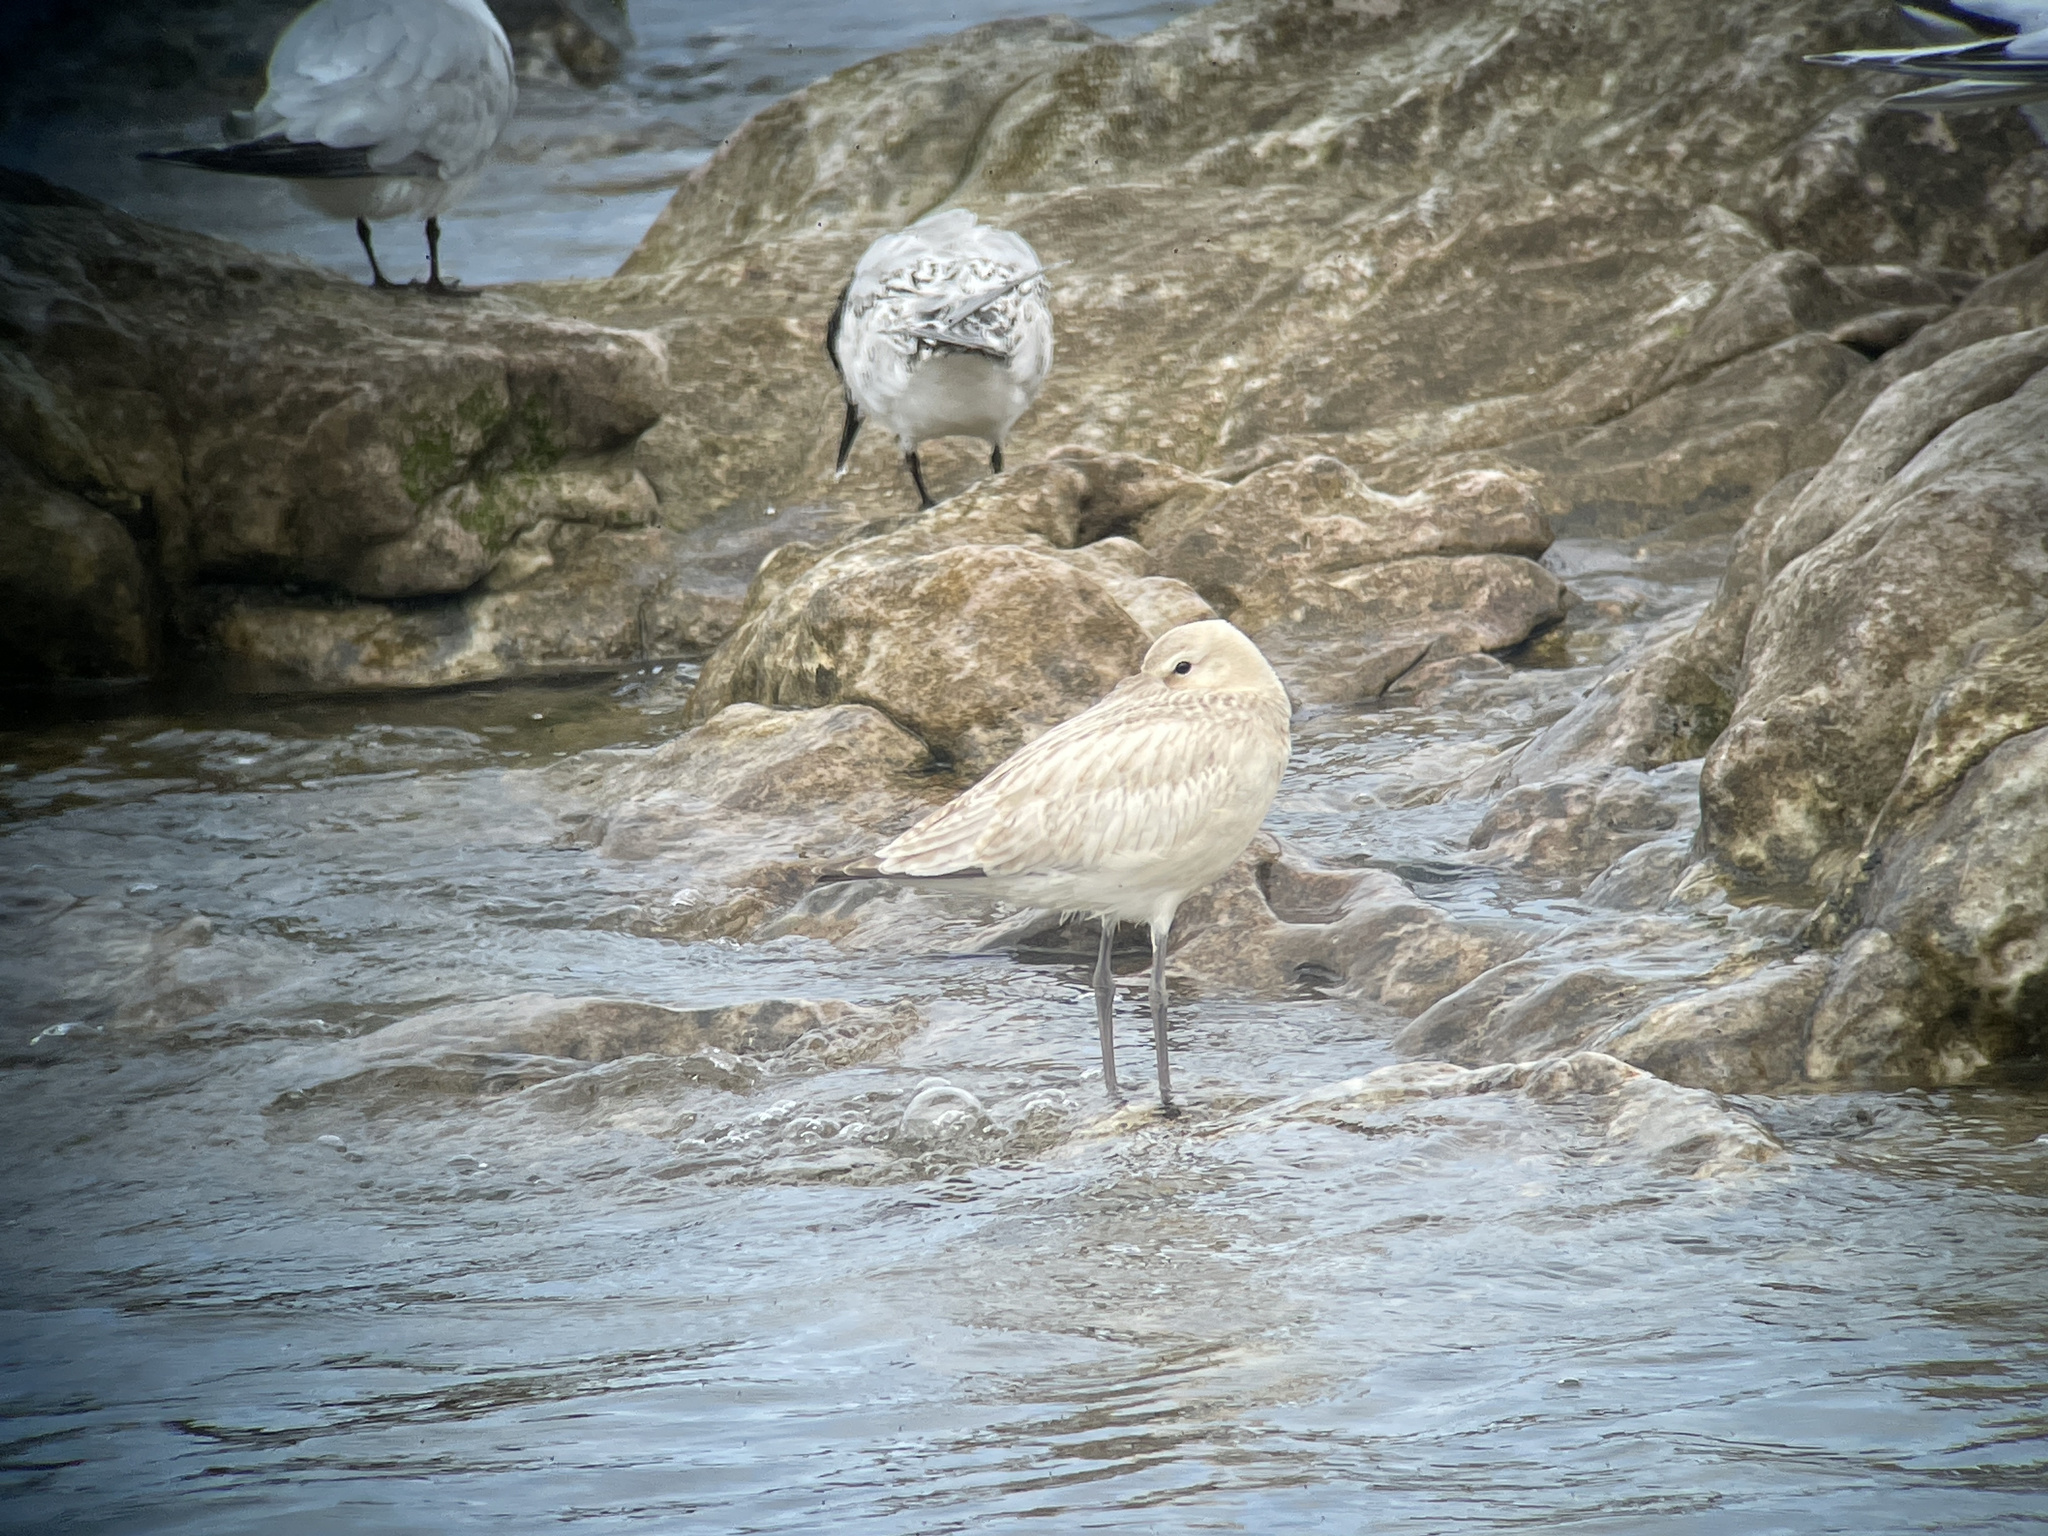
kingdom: Animalia
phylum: Chordata
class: Aves
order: Charadriiformes
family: Scolopacidae
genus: Limosa
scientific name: Limosa lapponica
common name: Bar-tailed godwit
